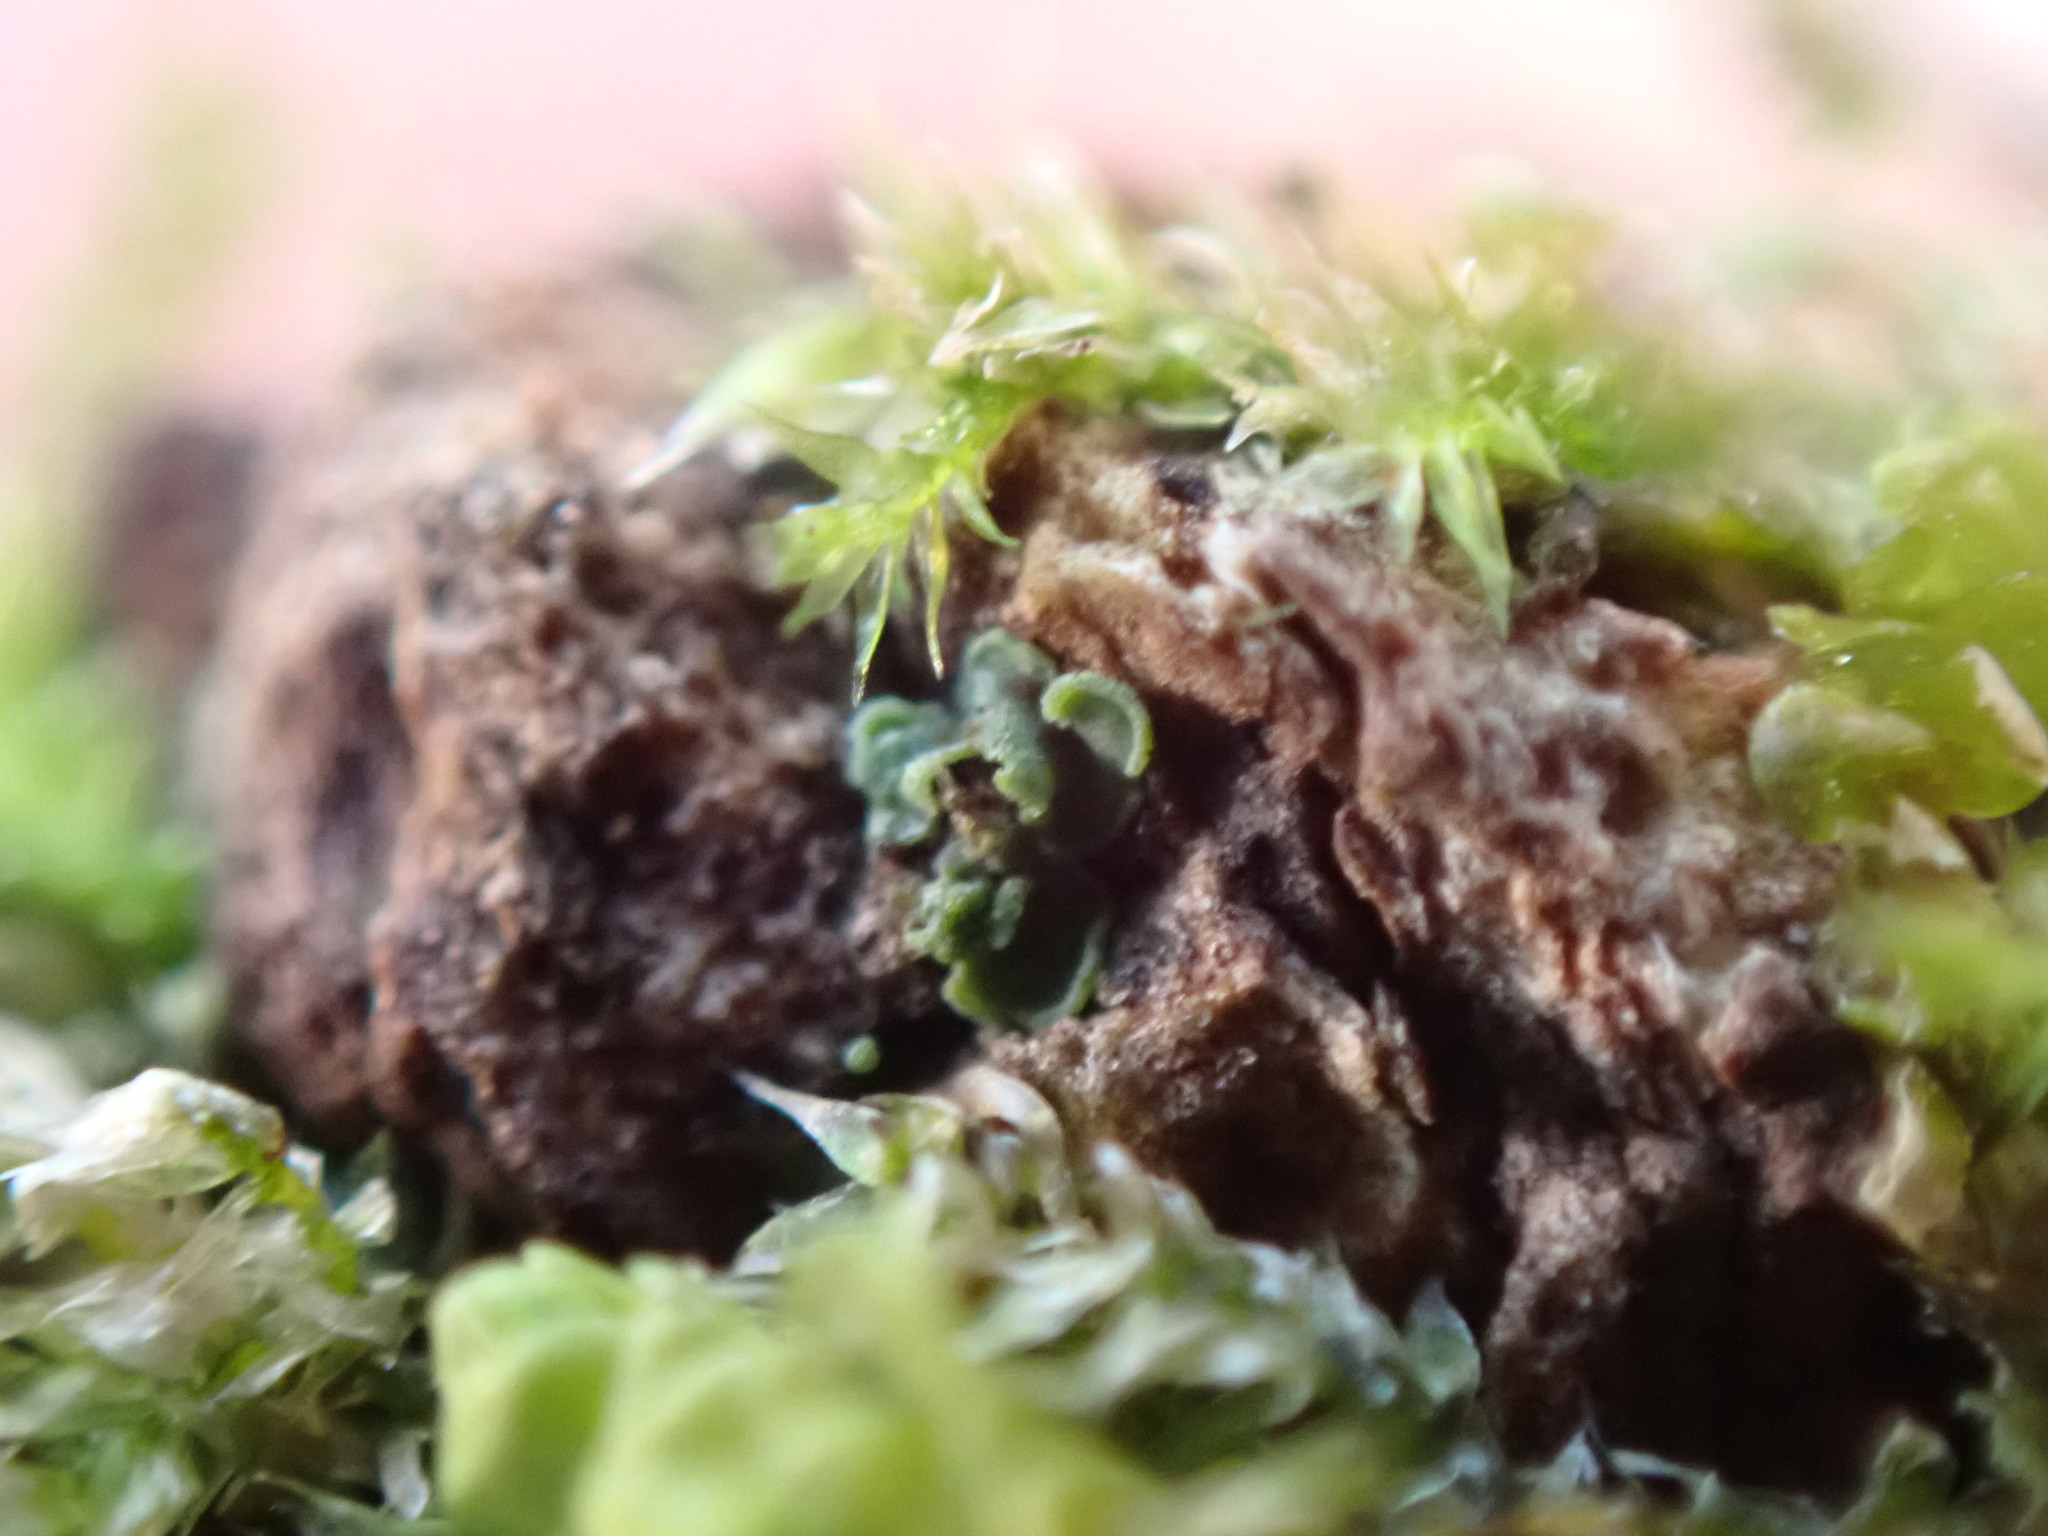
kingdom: Fungi
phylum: Ascomycota
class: Eurotiomycetes
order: Verrucariales
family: Verrucariaceae
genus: Normandina
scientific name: Normandina pulchella
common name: Elf ears lichen
